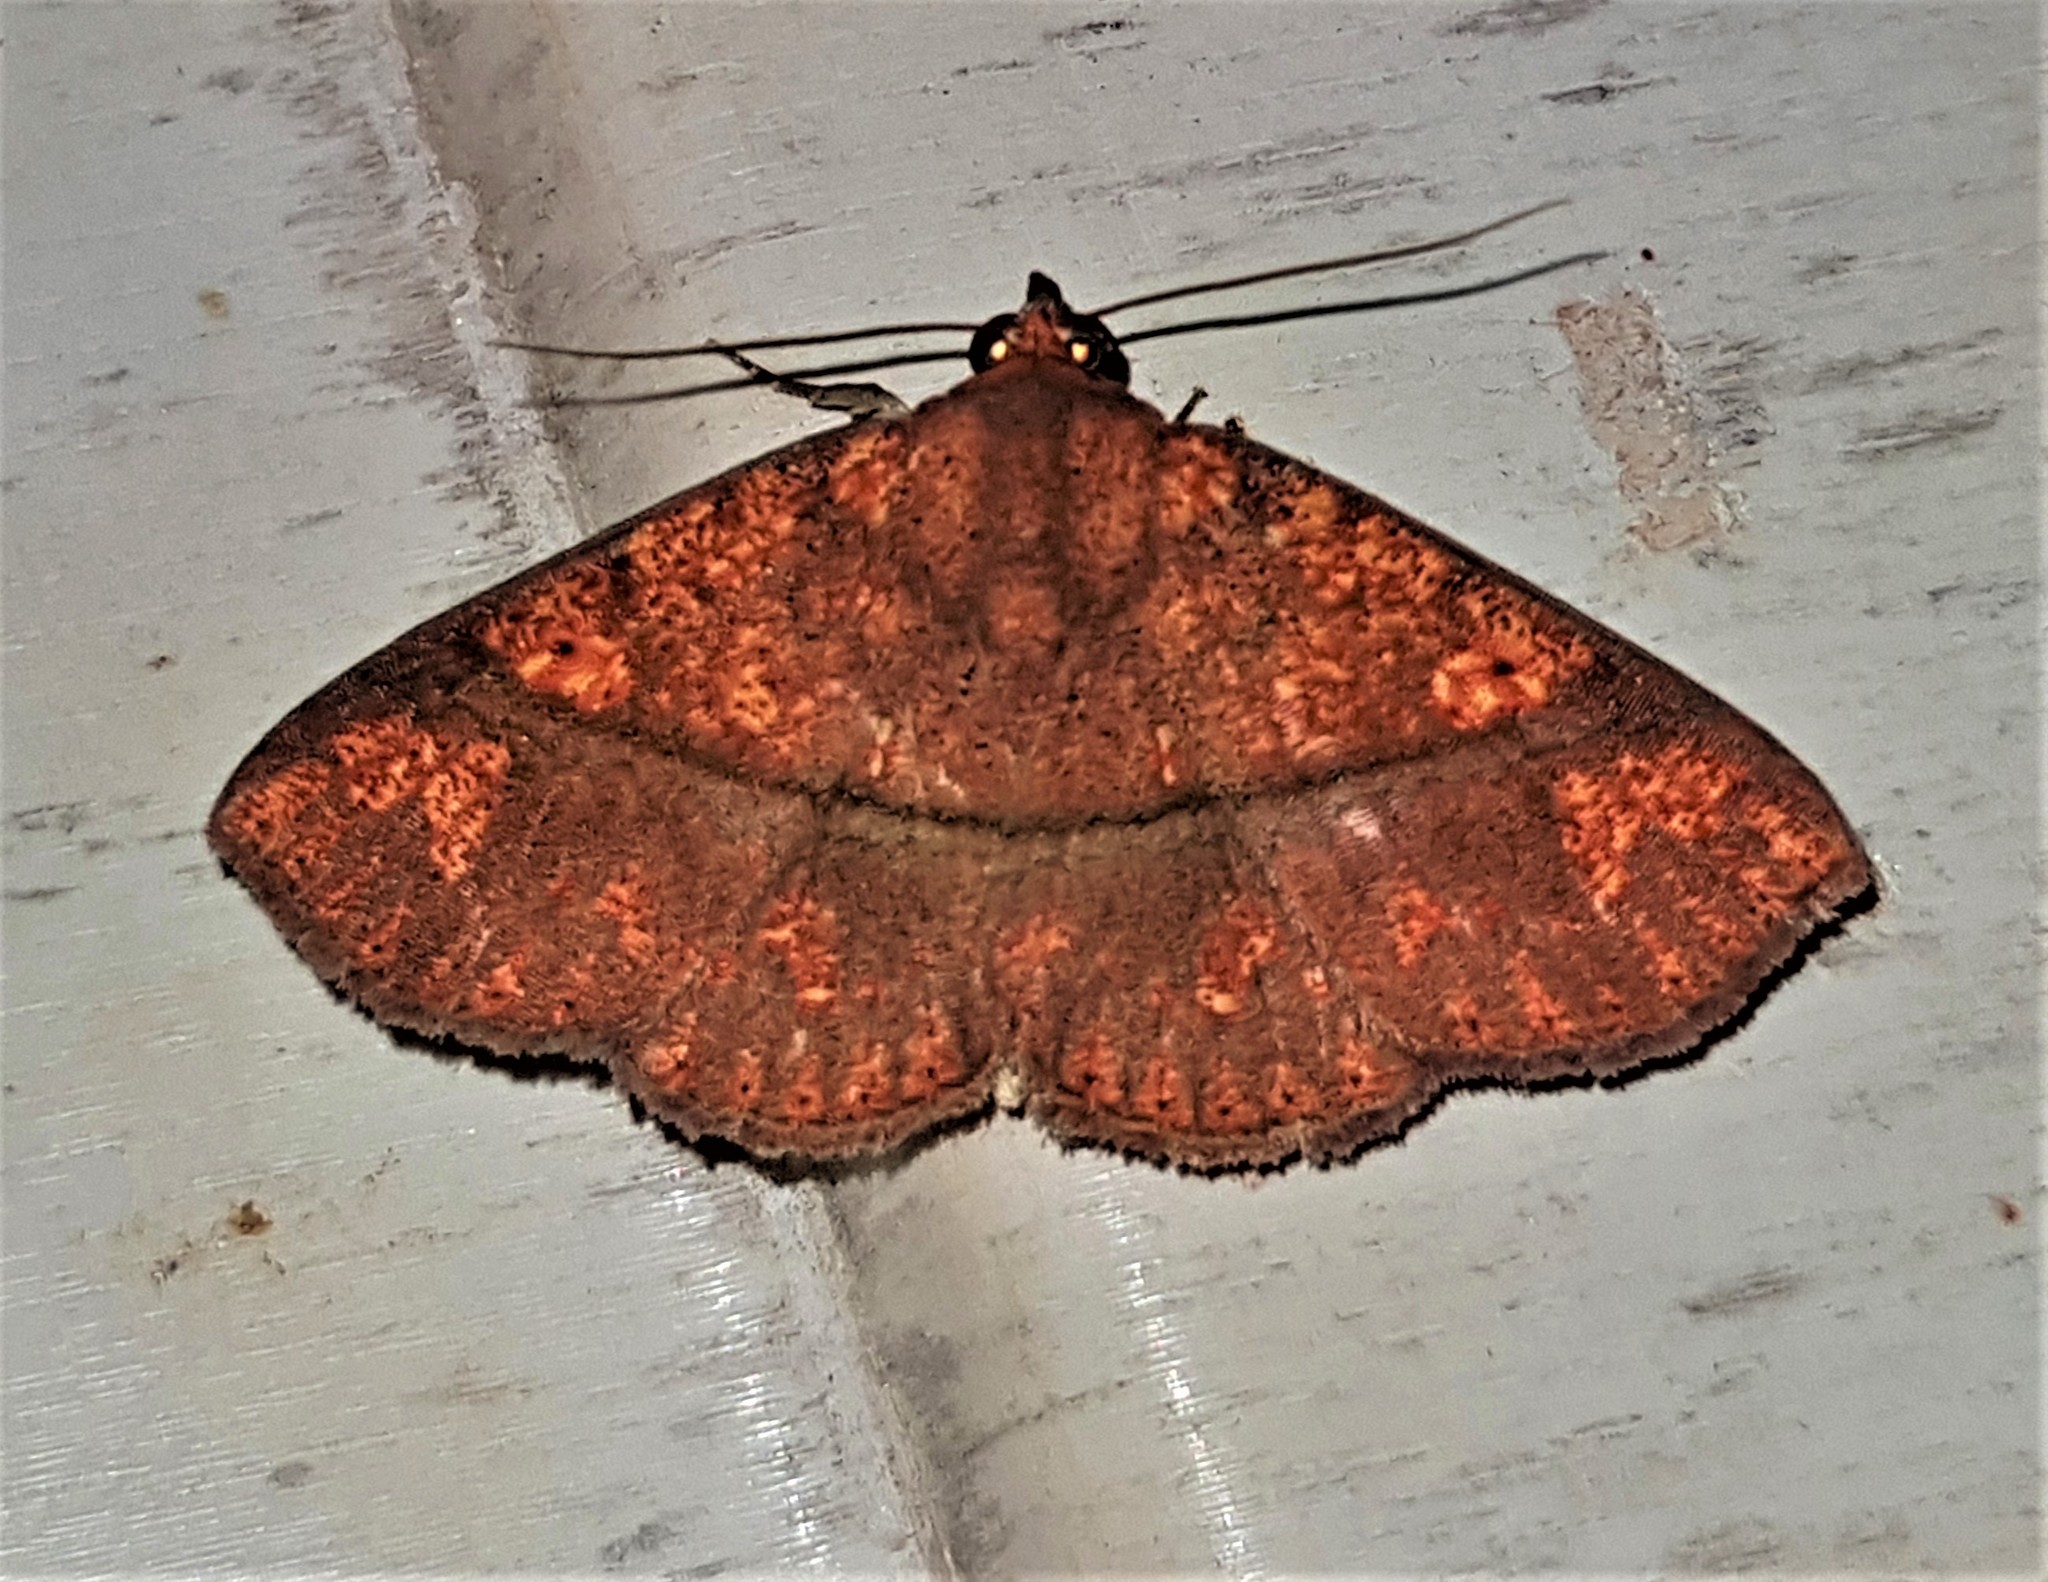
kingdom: Animalia
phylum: Arthropoda
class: Insecta
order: Lepidoptera
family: Erebidae
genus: Antiblemma
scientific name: Antiblemma subrutilans
